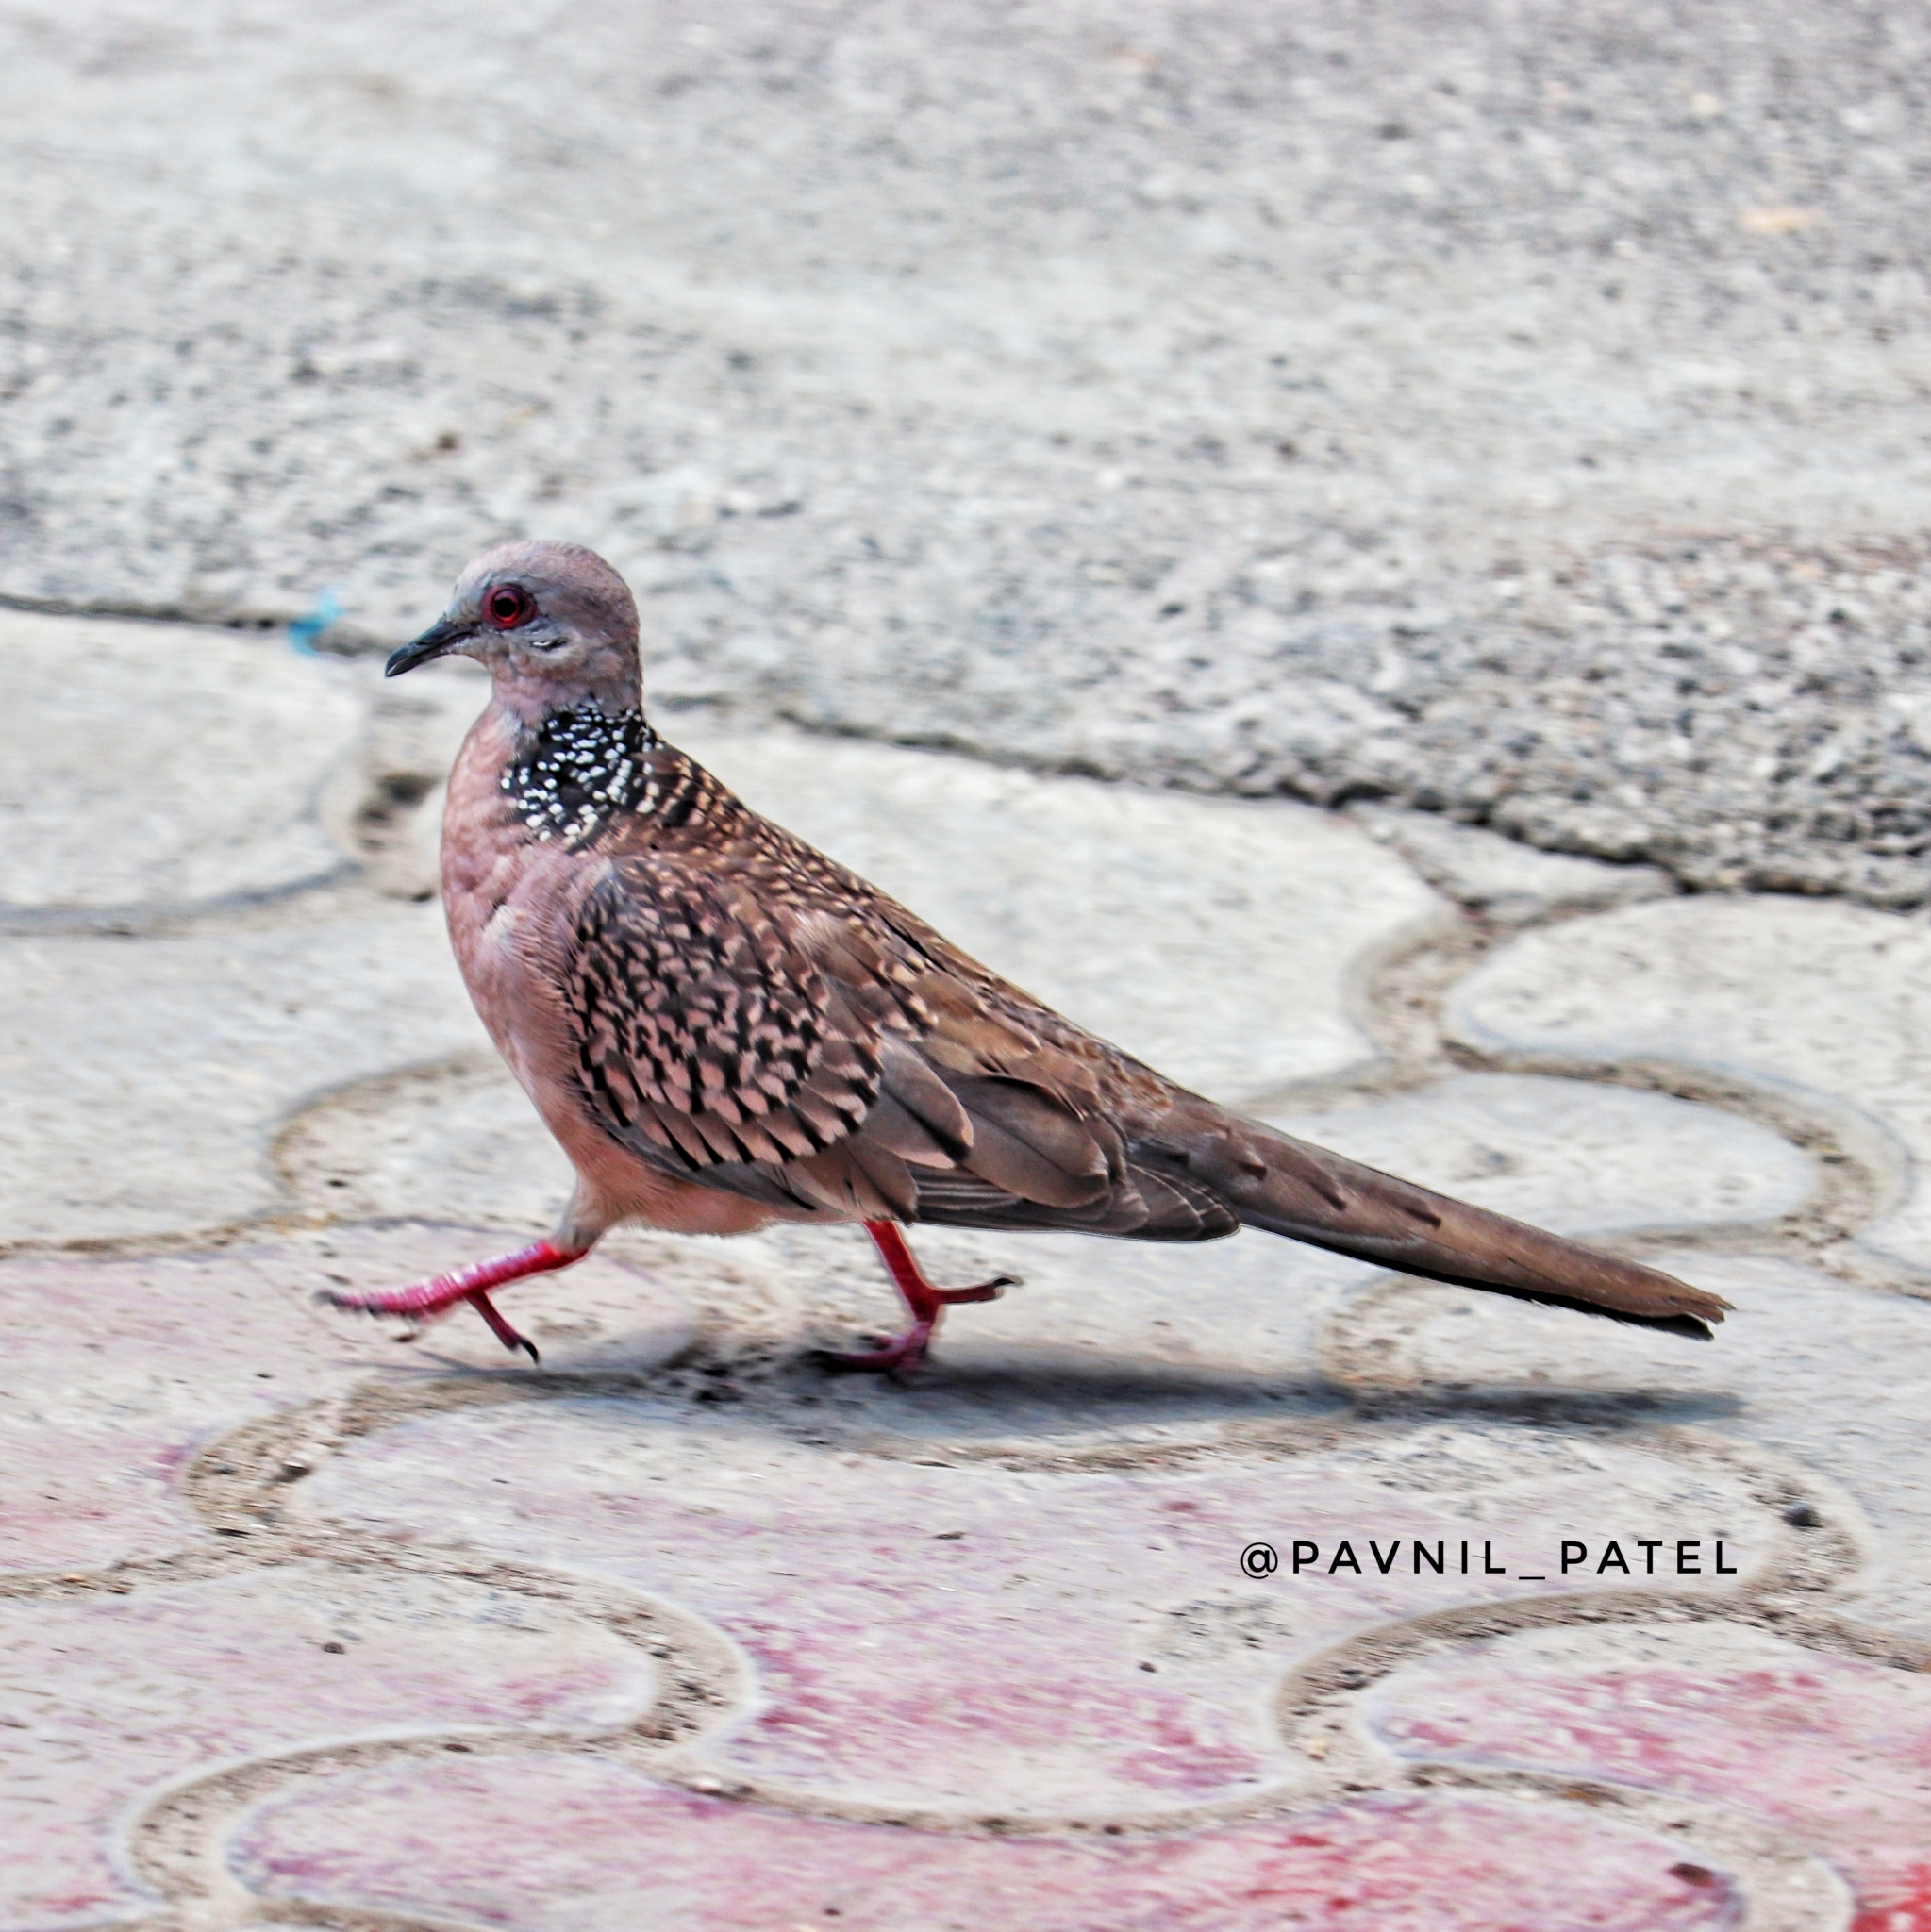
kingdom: Animalia
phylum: Chordata
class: Aves
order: Columbiformes
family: Columbidae
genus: Spilopelia
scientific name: Spilopelia chinensis
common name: Spotted dove
